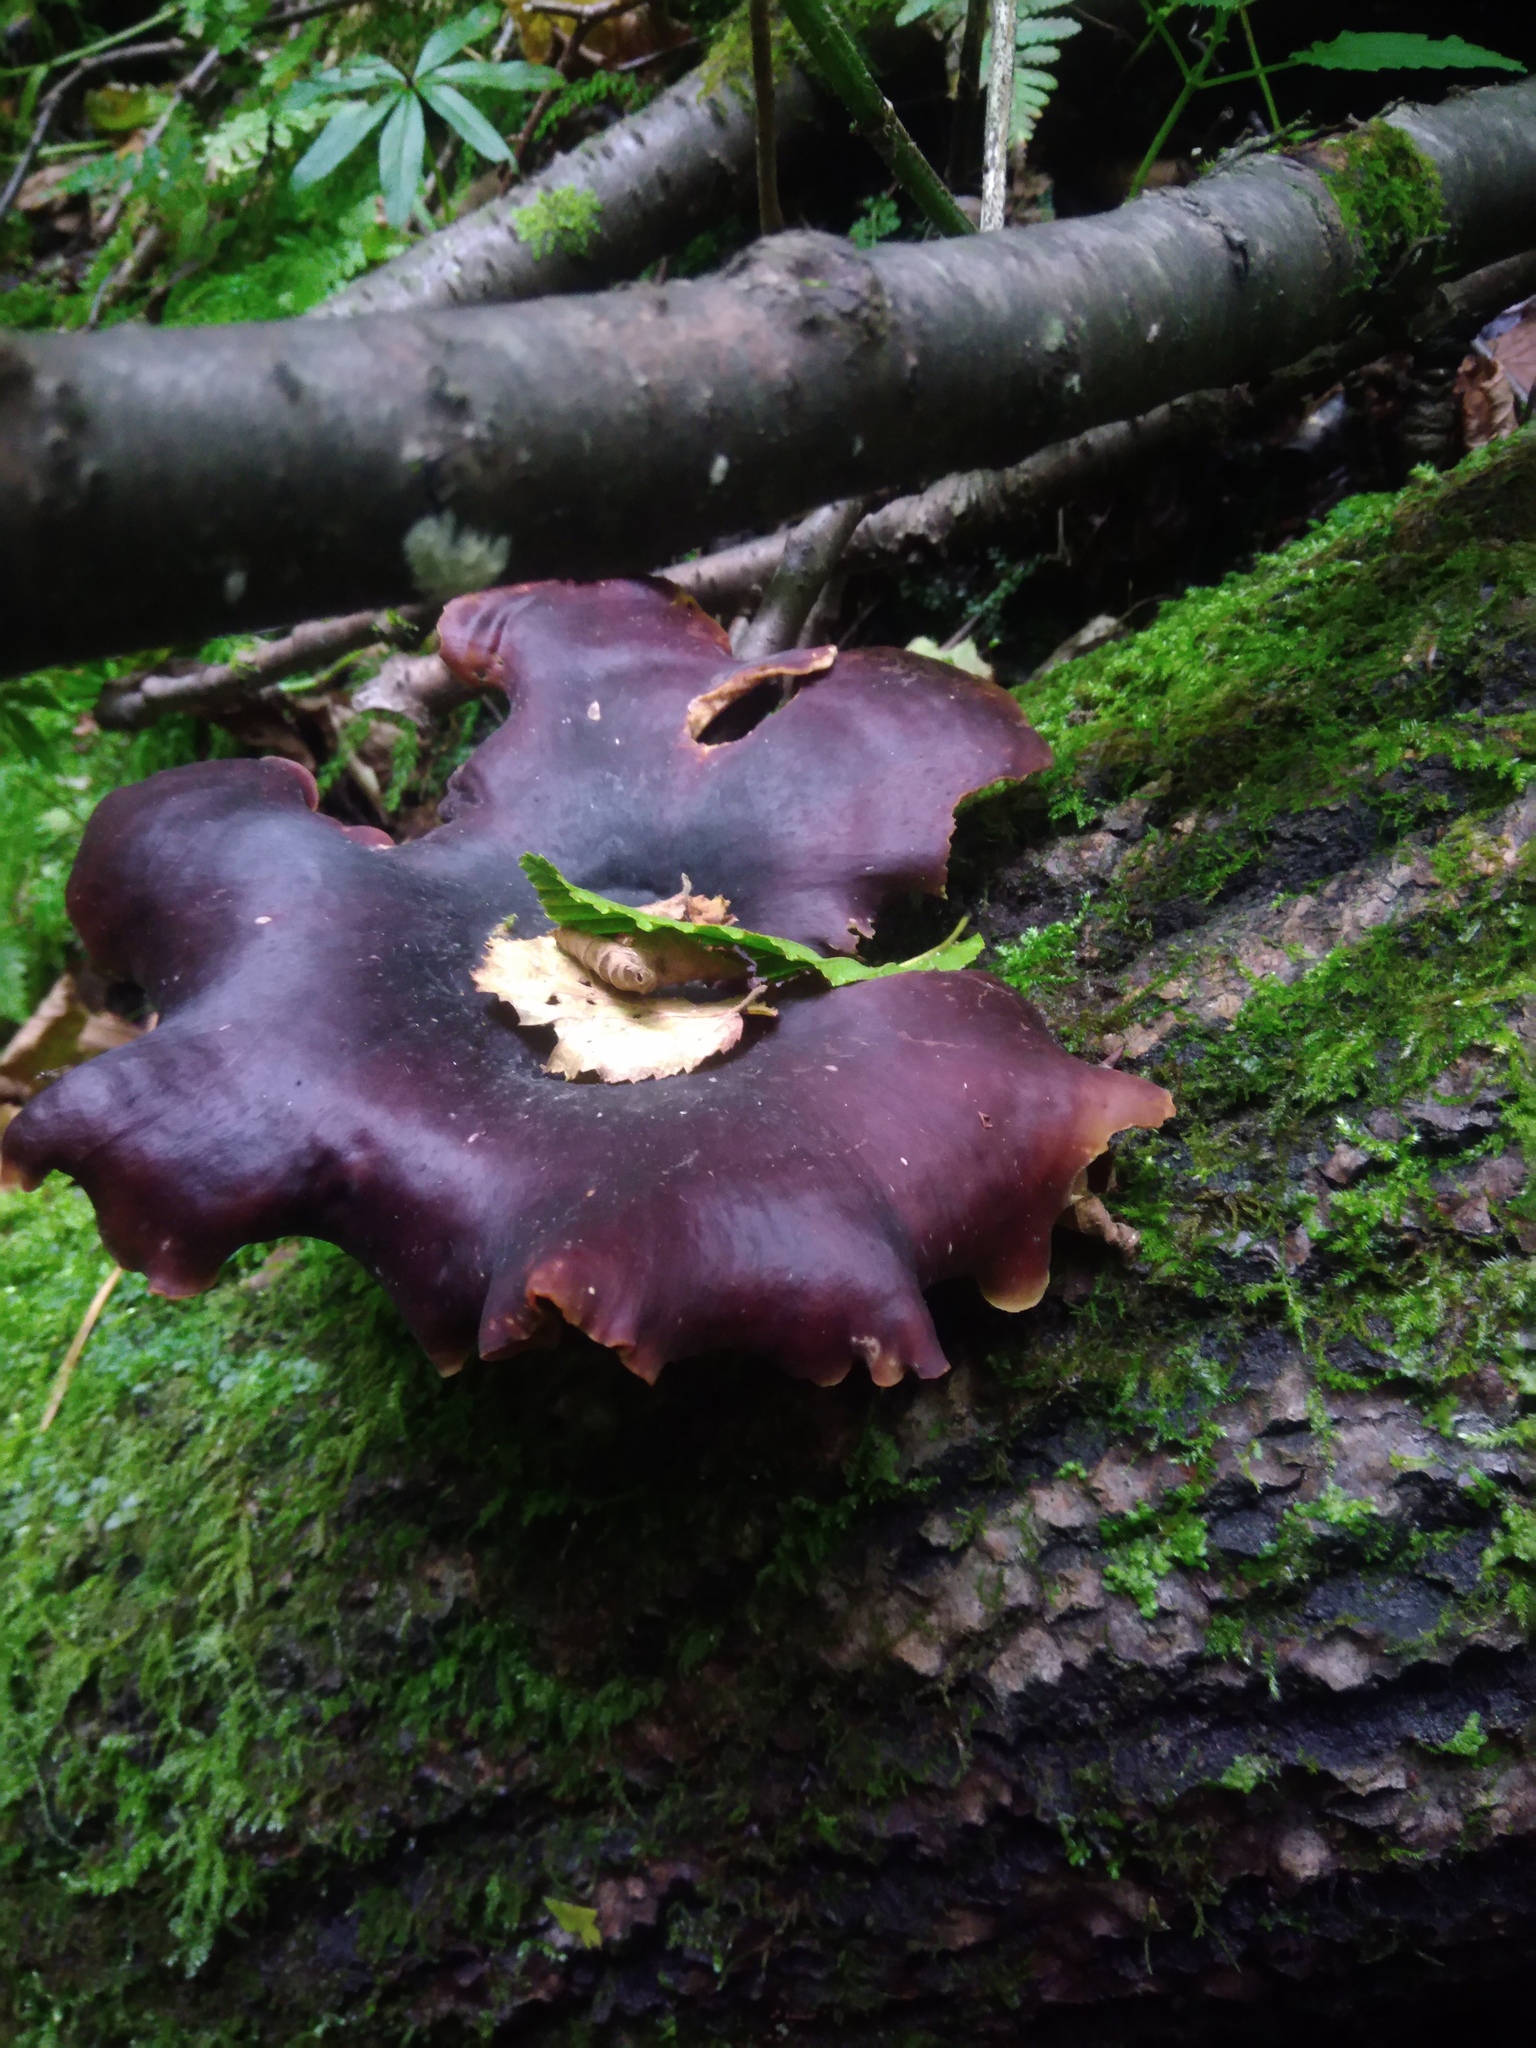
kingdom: Fungi
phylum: Basidiomycota
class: Agaricomycetes
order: Polyporales
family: Polyporaceae
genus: Picipes
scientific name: Picipes badius
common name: Bay polypore
